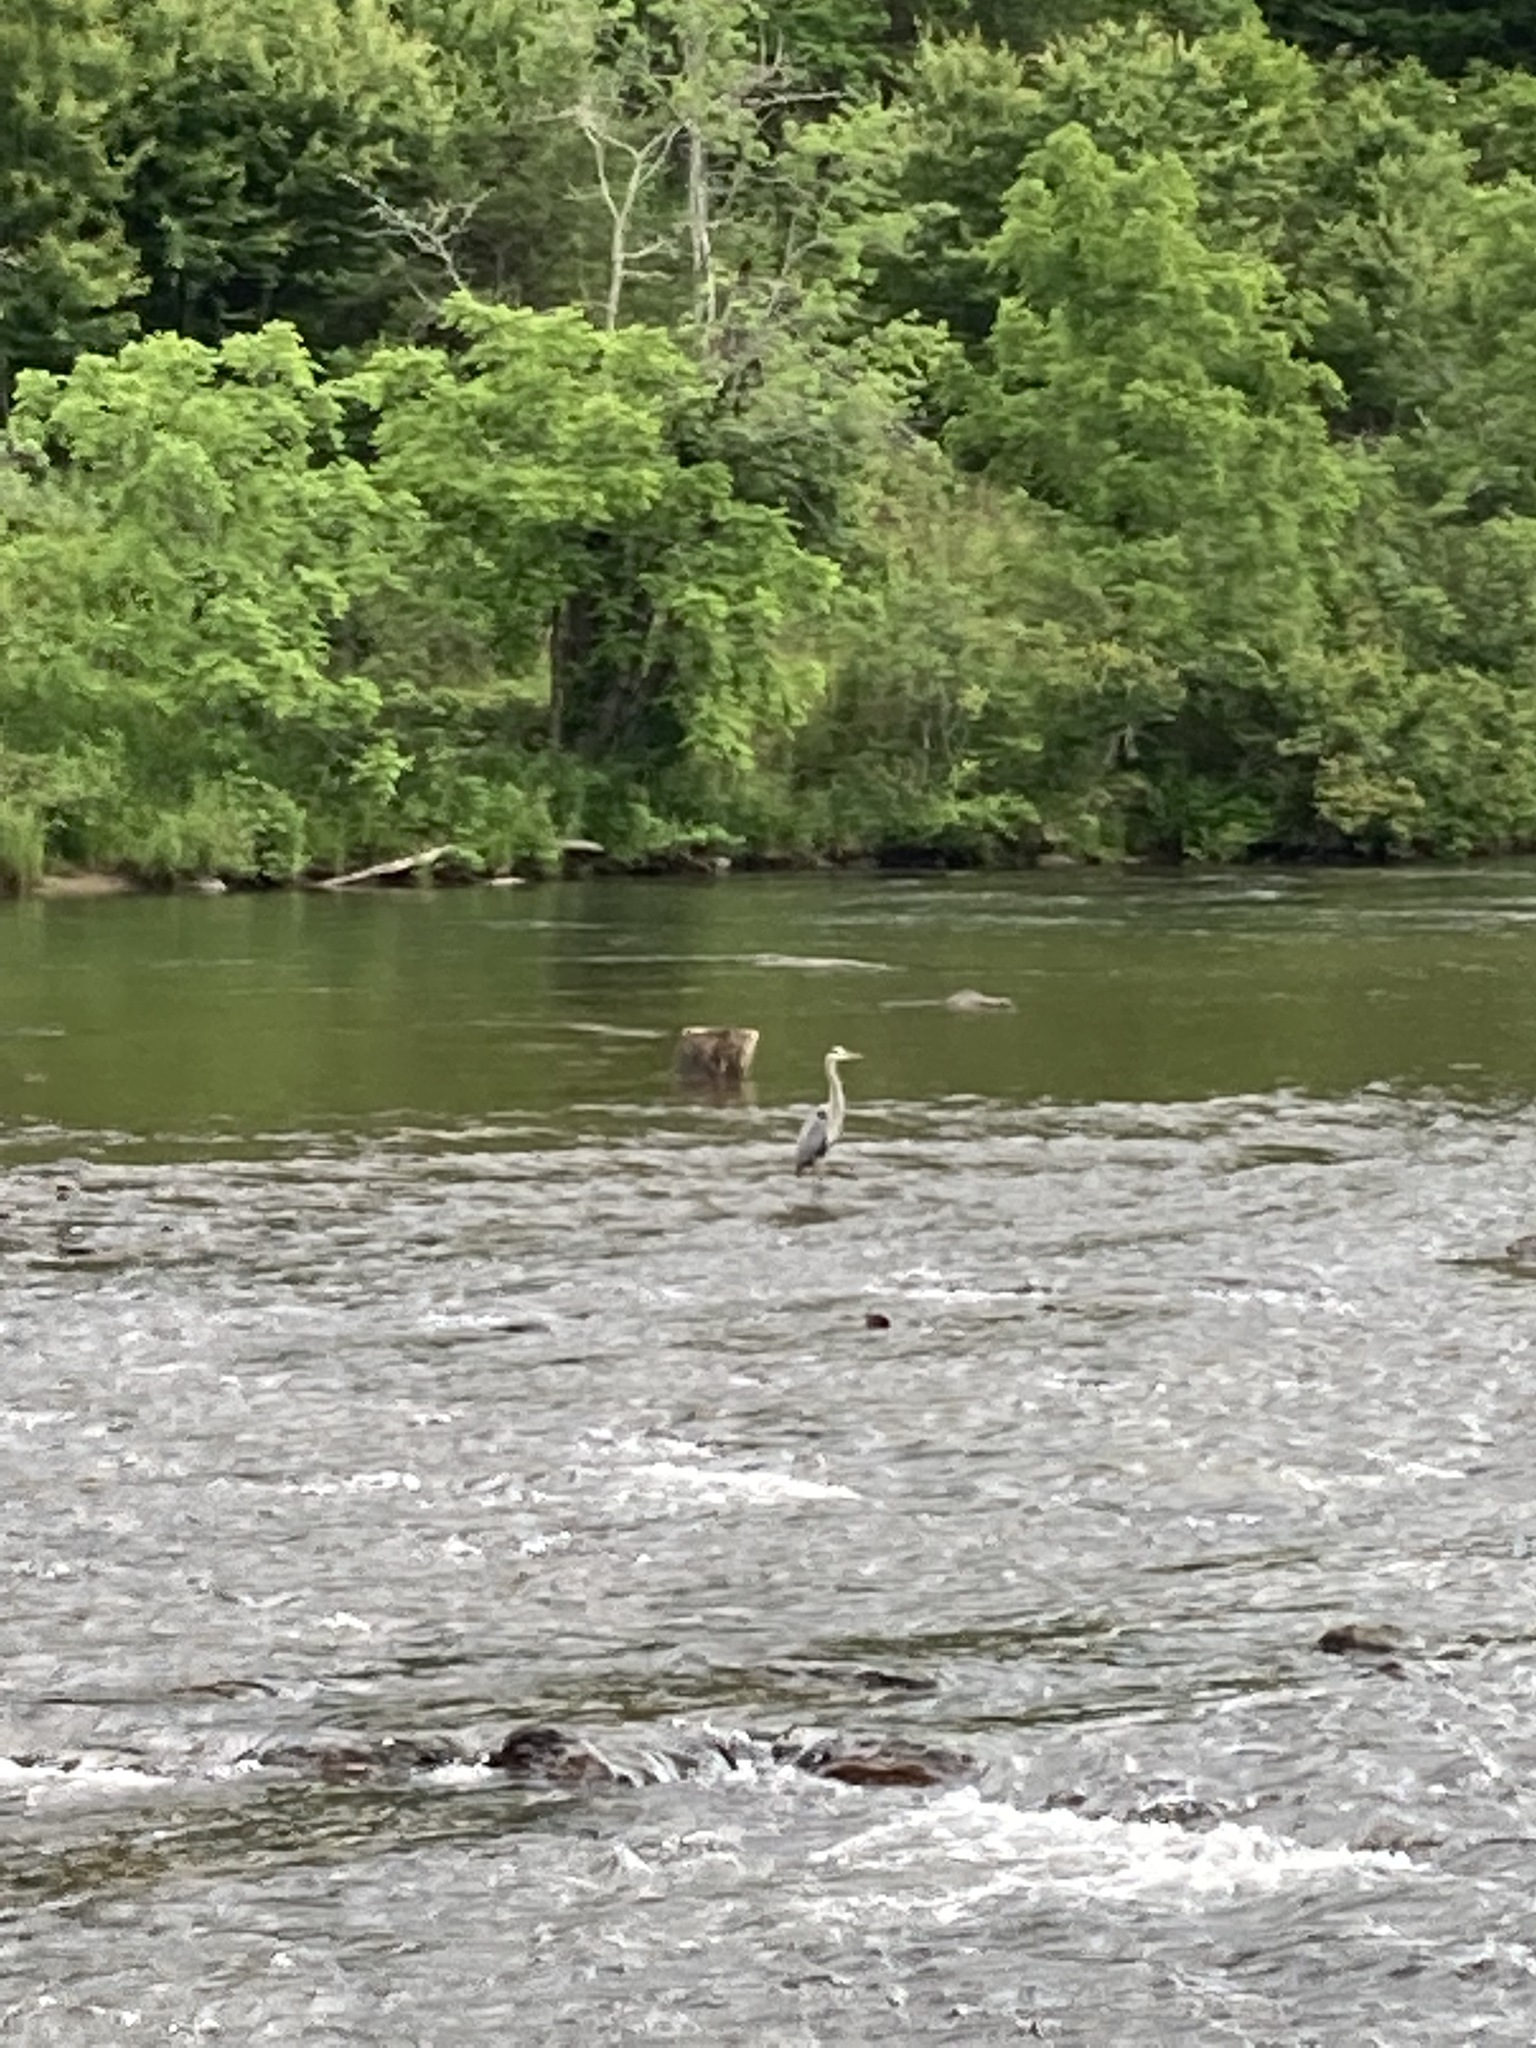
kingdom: Animalia
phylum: Chordata
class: Aves
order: Pelecaniformes
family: Ardeidae
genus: Ardea
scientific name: Ardea herodias
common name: Great blue heron
